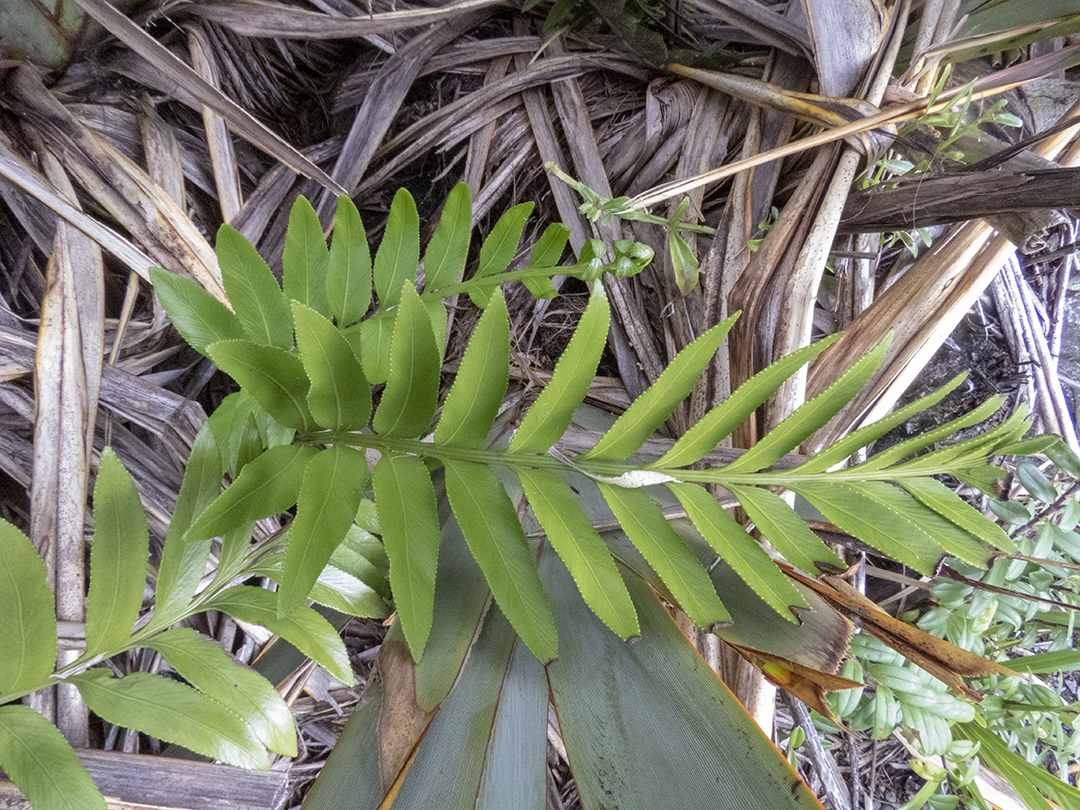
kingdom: Plantae
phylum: Tracheophyta
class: Polypodiopsida
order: Polypodiales
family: Aspleniaceae
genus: Asplenium
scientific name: Asplenium obtusatum
